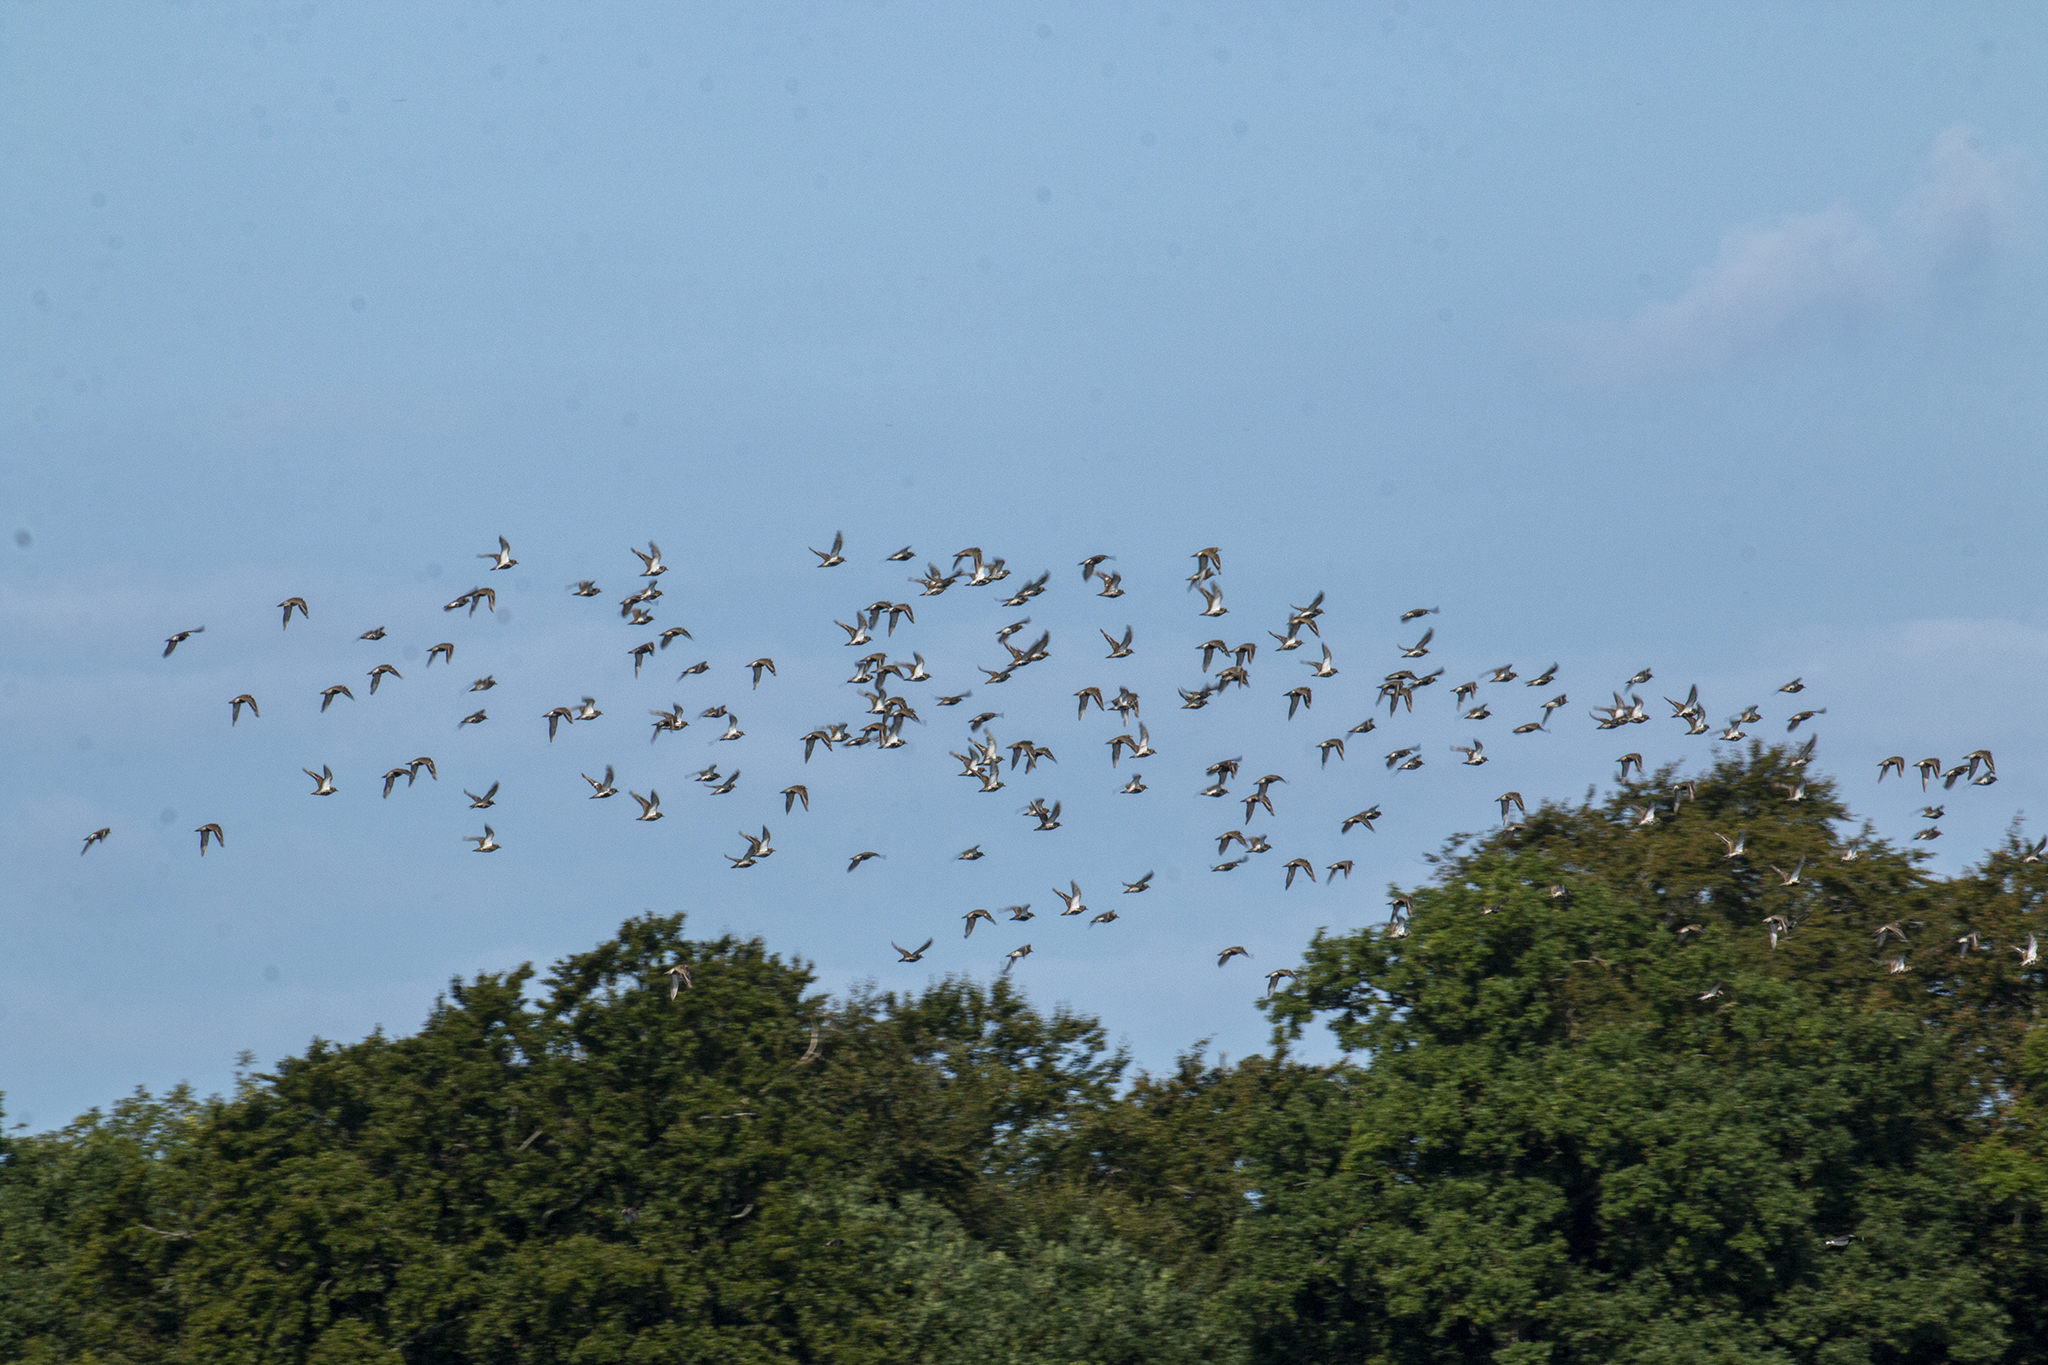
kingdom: Animalia
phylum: Chordata
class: Aves
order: Charadriiformes
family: Charadriidae
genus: Pluvialis
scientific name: Pluvialis apricaria
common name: European golden plover
